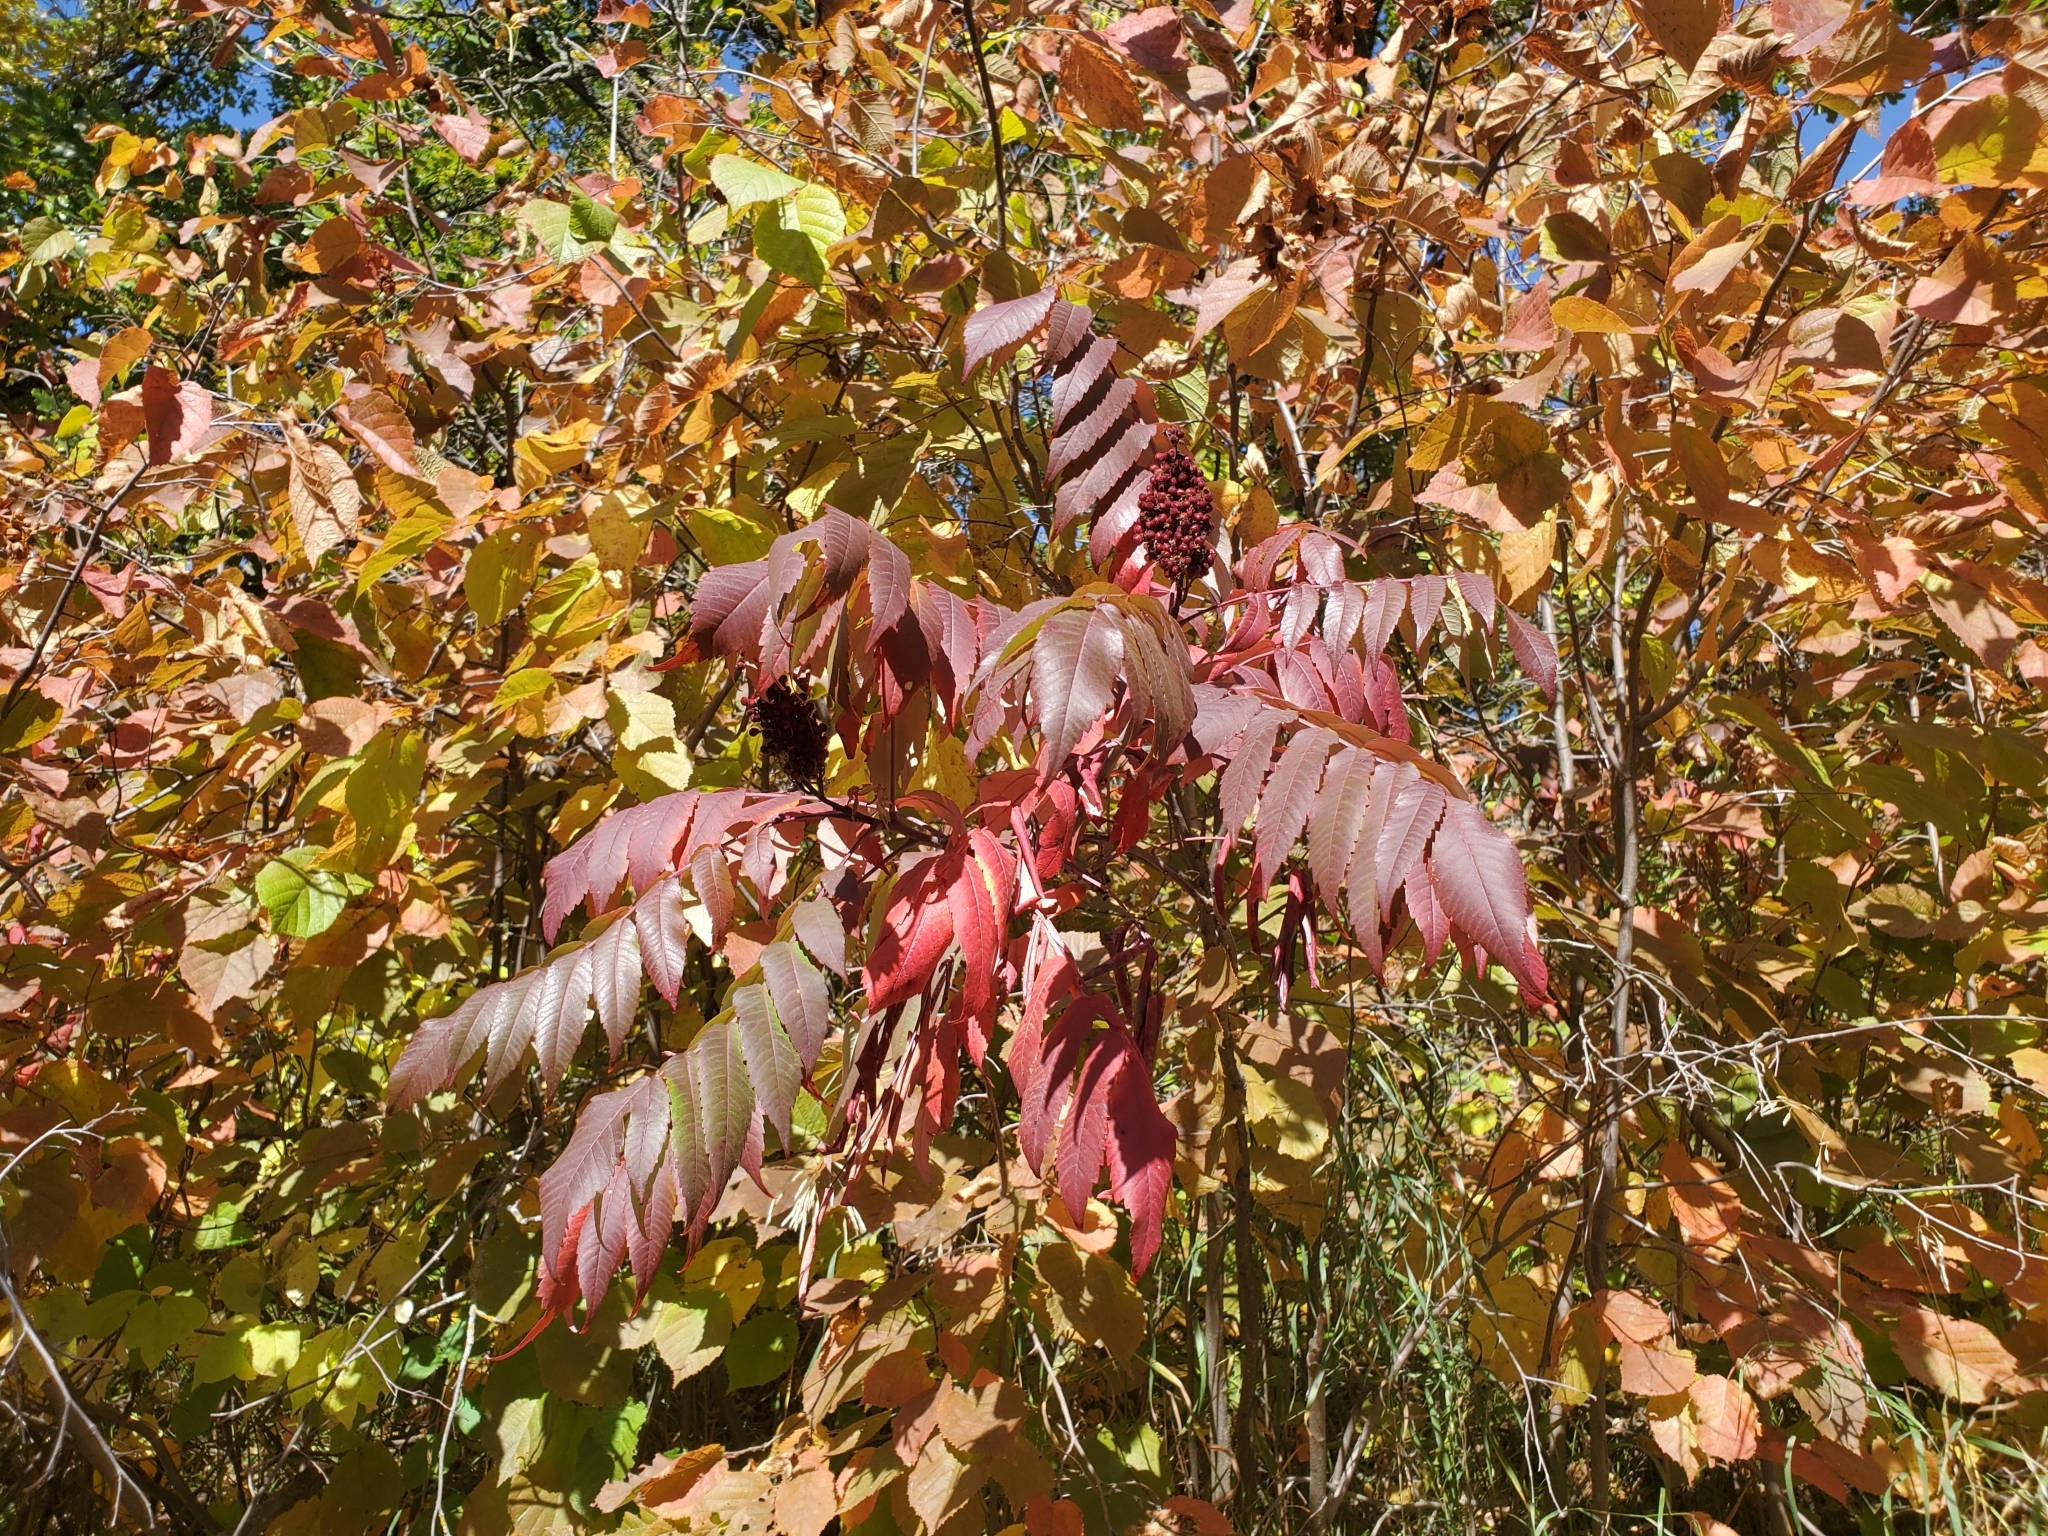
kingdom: Plantae
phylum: Tracheophyta
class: Magnoliopsida
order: Sapindales
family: Anacardiaceae
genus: Rhus
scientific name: Rhus glabra
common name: Scarlet sumac
